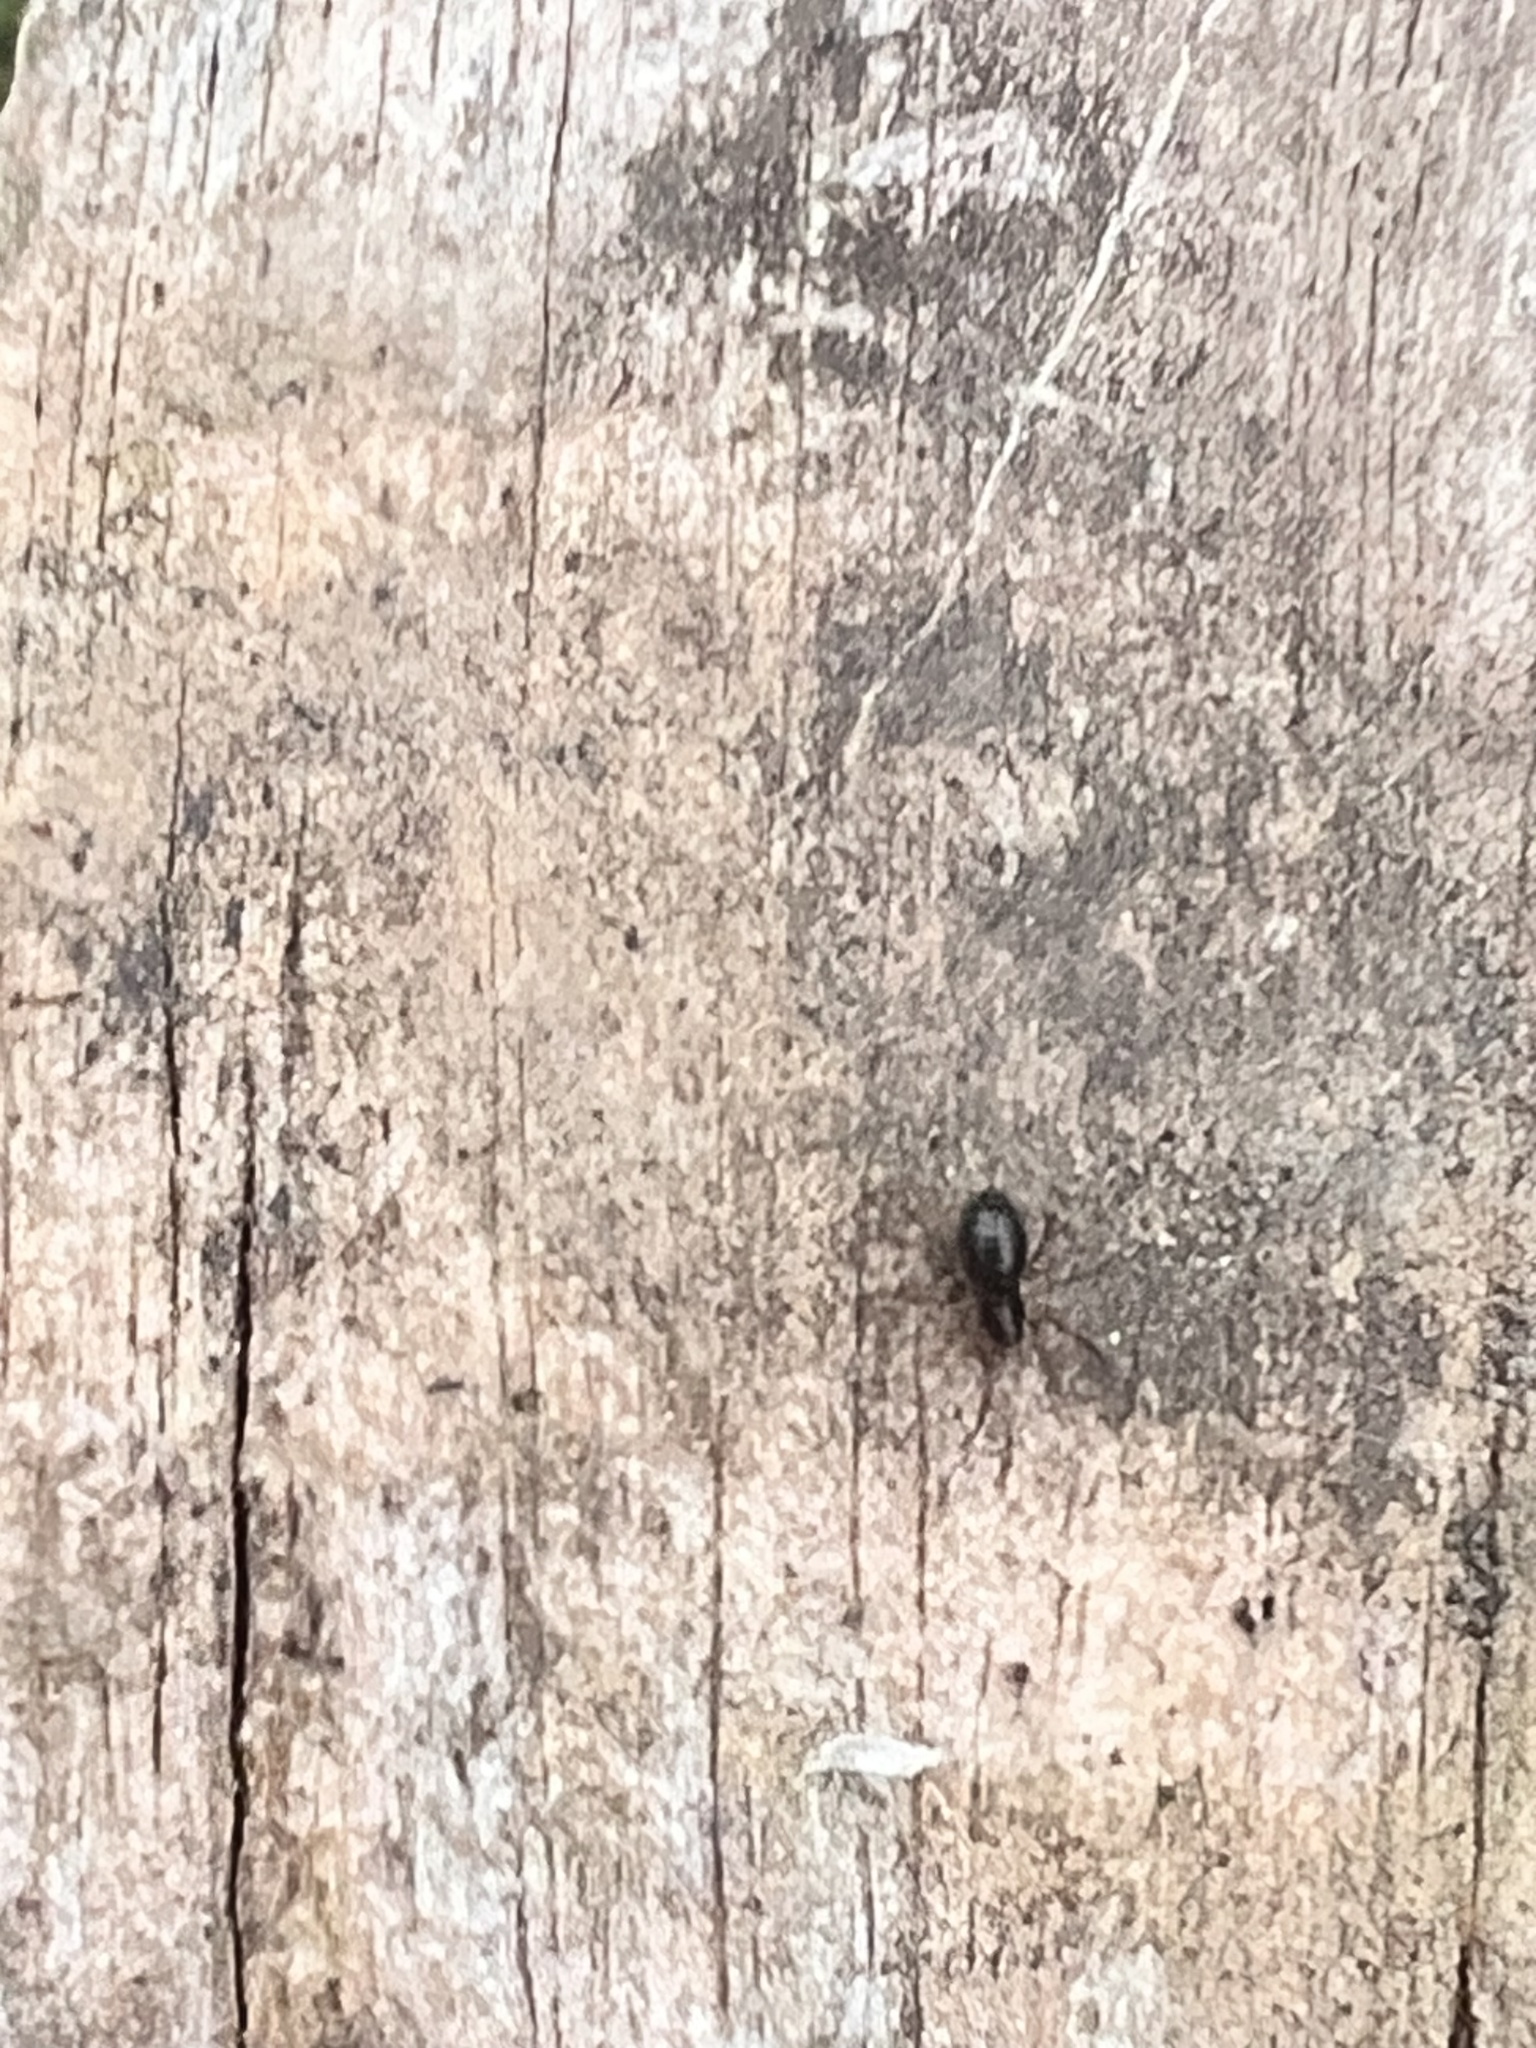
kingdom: Animalia
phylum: Arthropoda
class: Arachnida
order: Araneae
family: Linyphiidae
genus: Diplocephalus
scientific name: Diplocephalus cristatus
